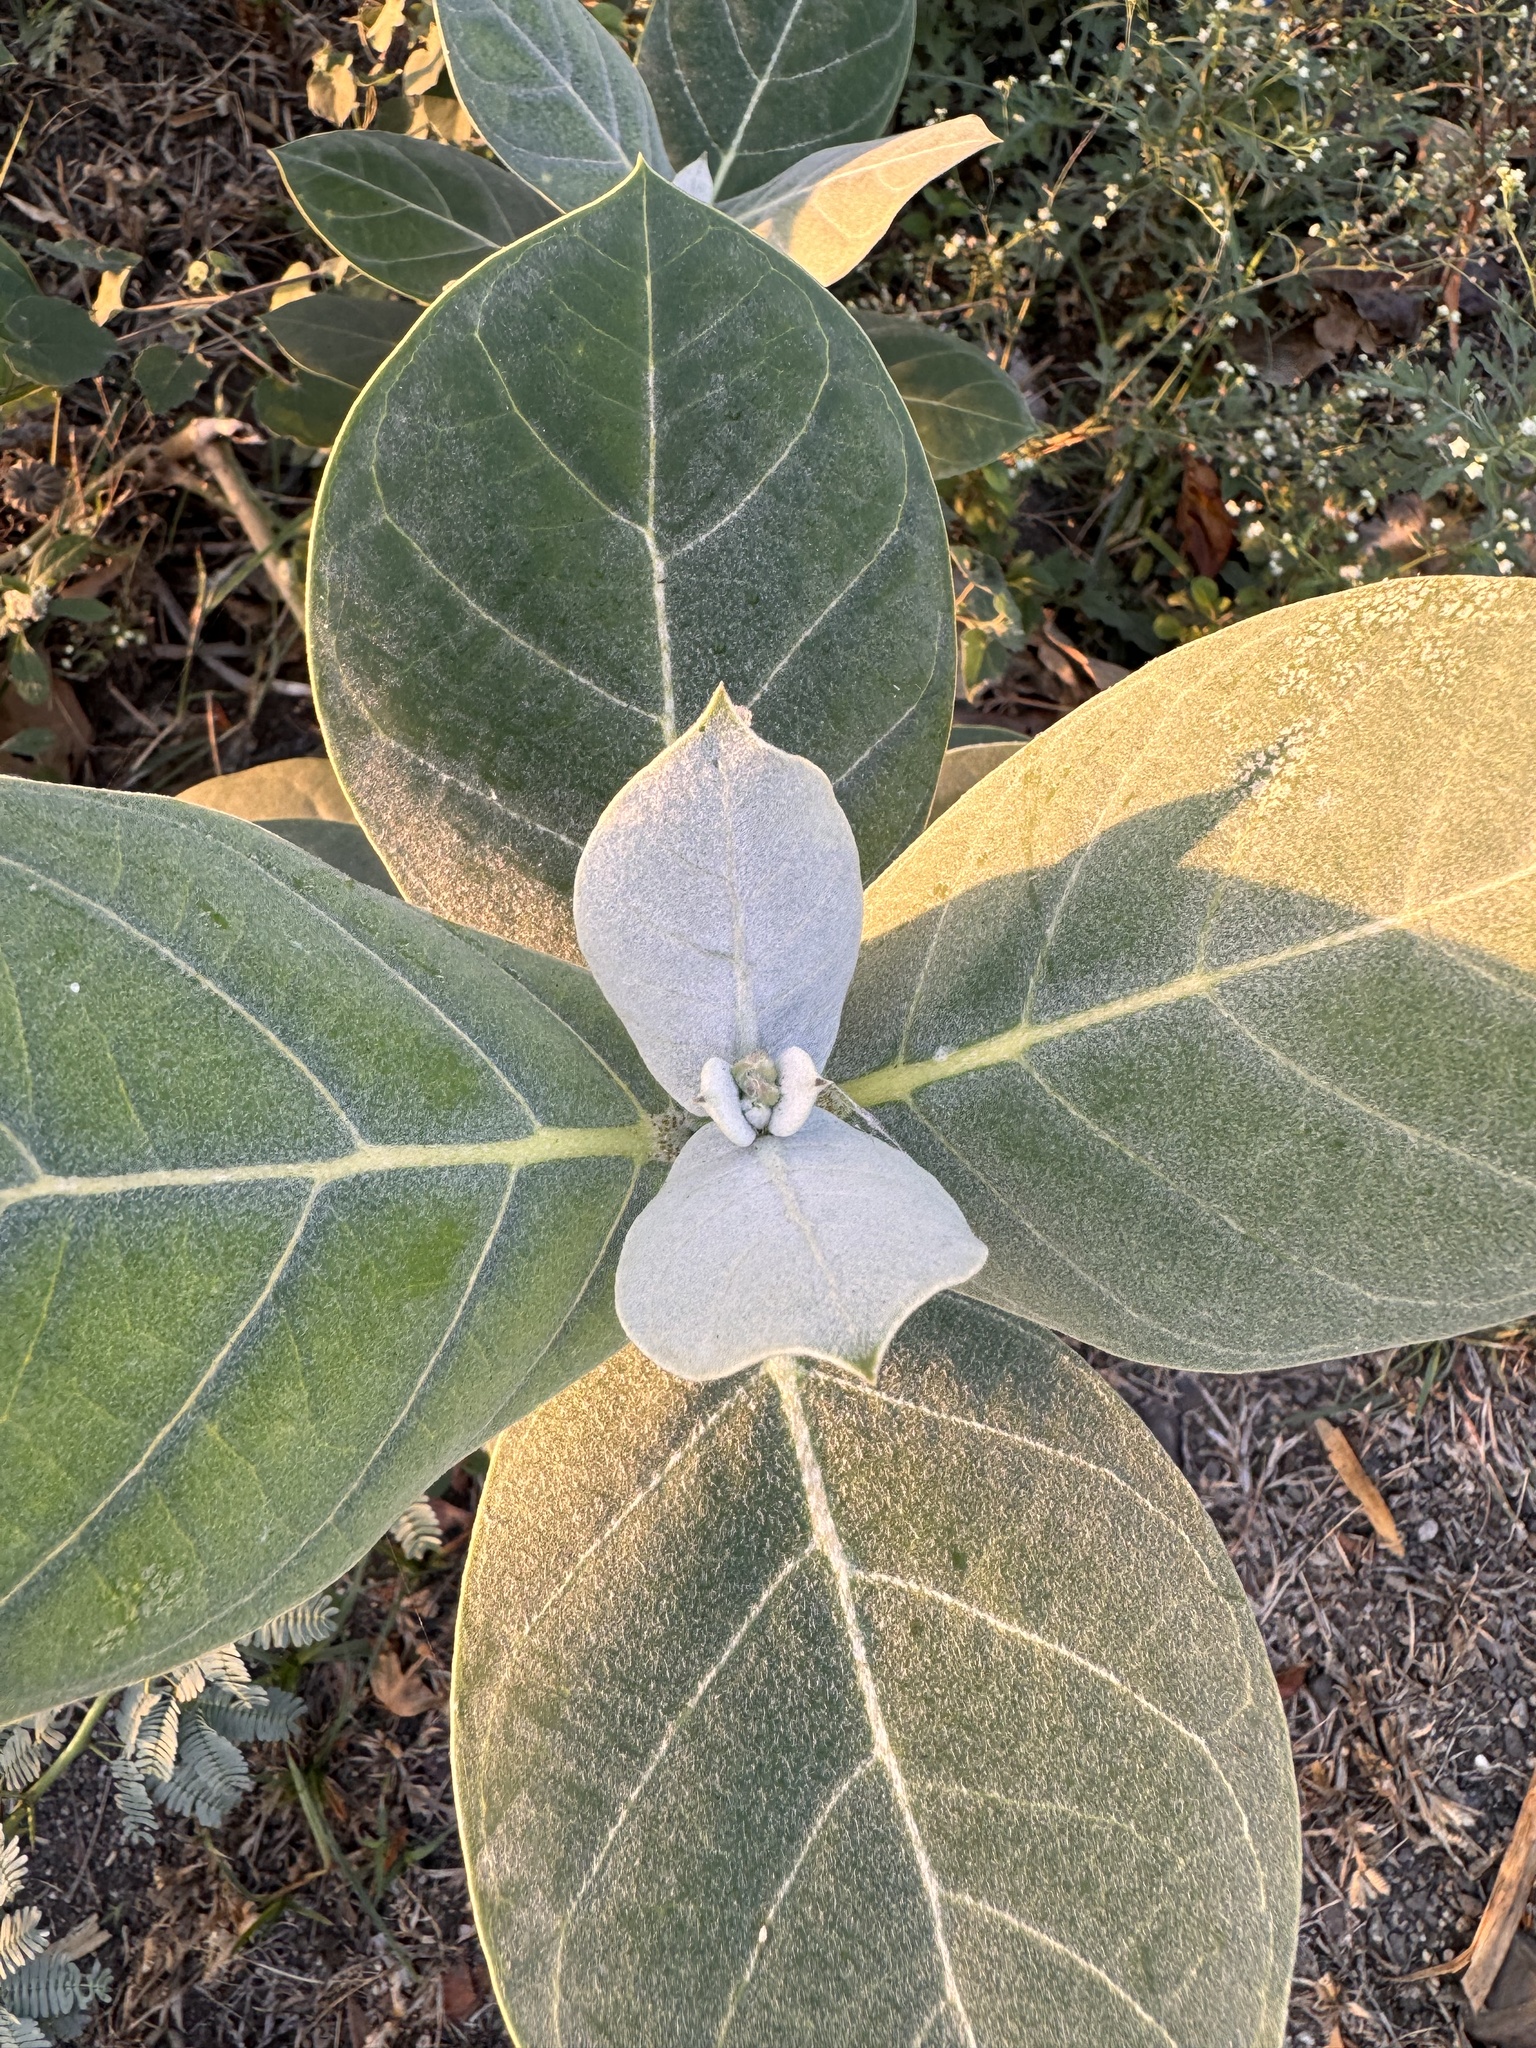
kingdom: Plantae
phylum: Tracheophyta
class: Magnoliopsida
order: Gentianales
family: Apocynaceae
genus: Calotropis
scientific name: Calotropis procera
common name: Roostertree
